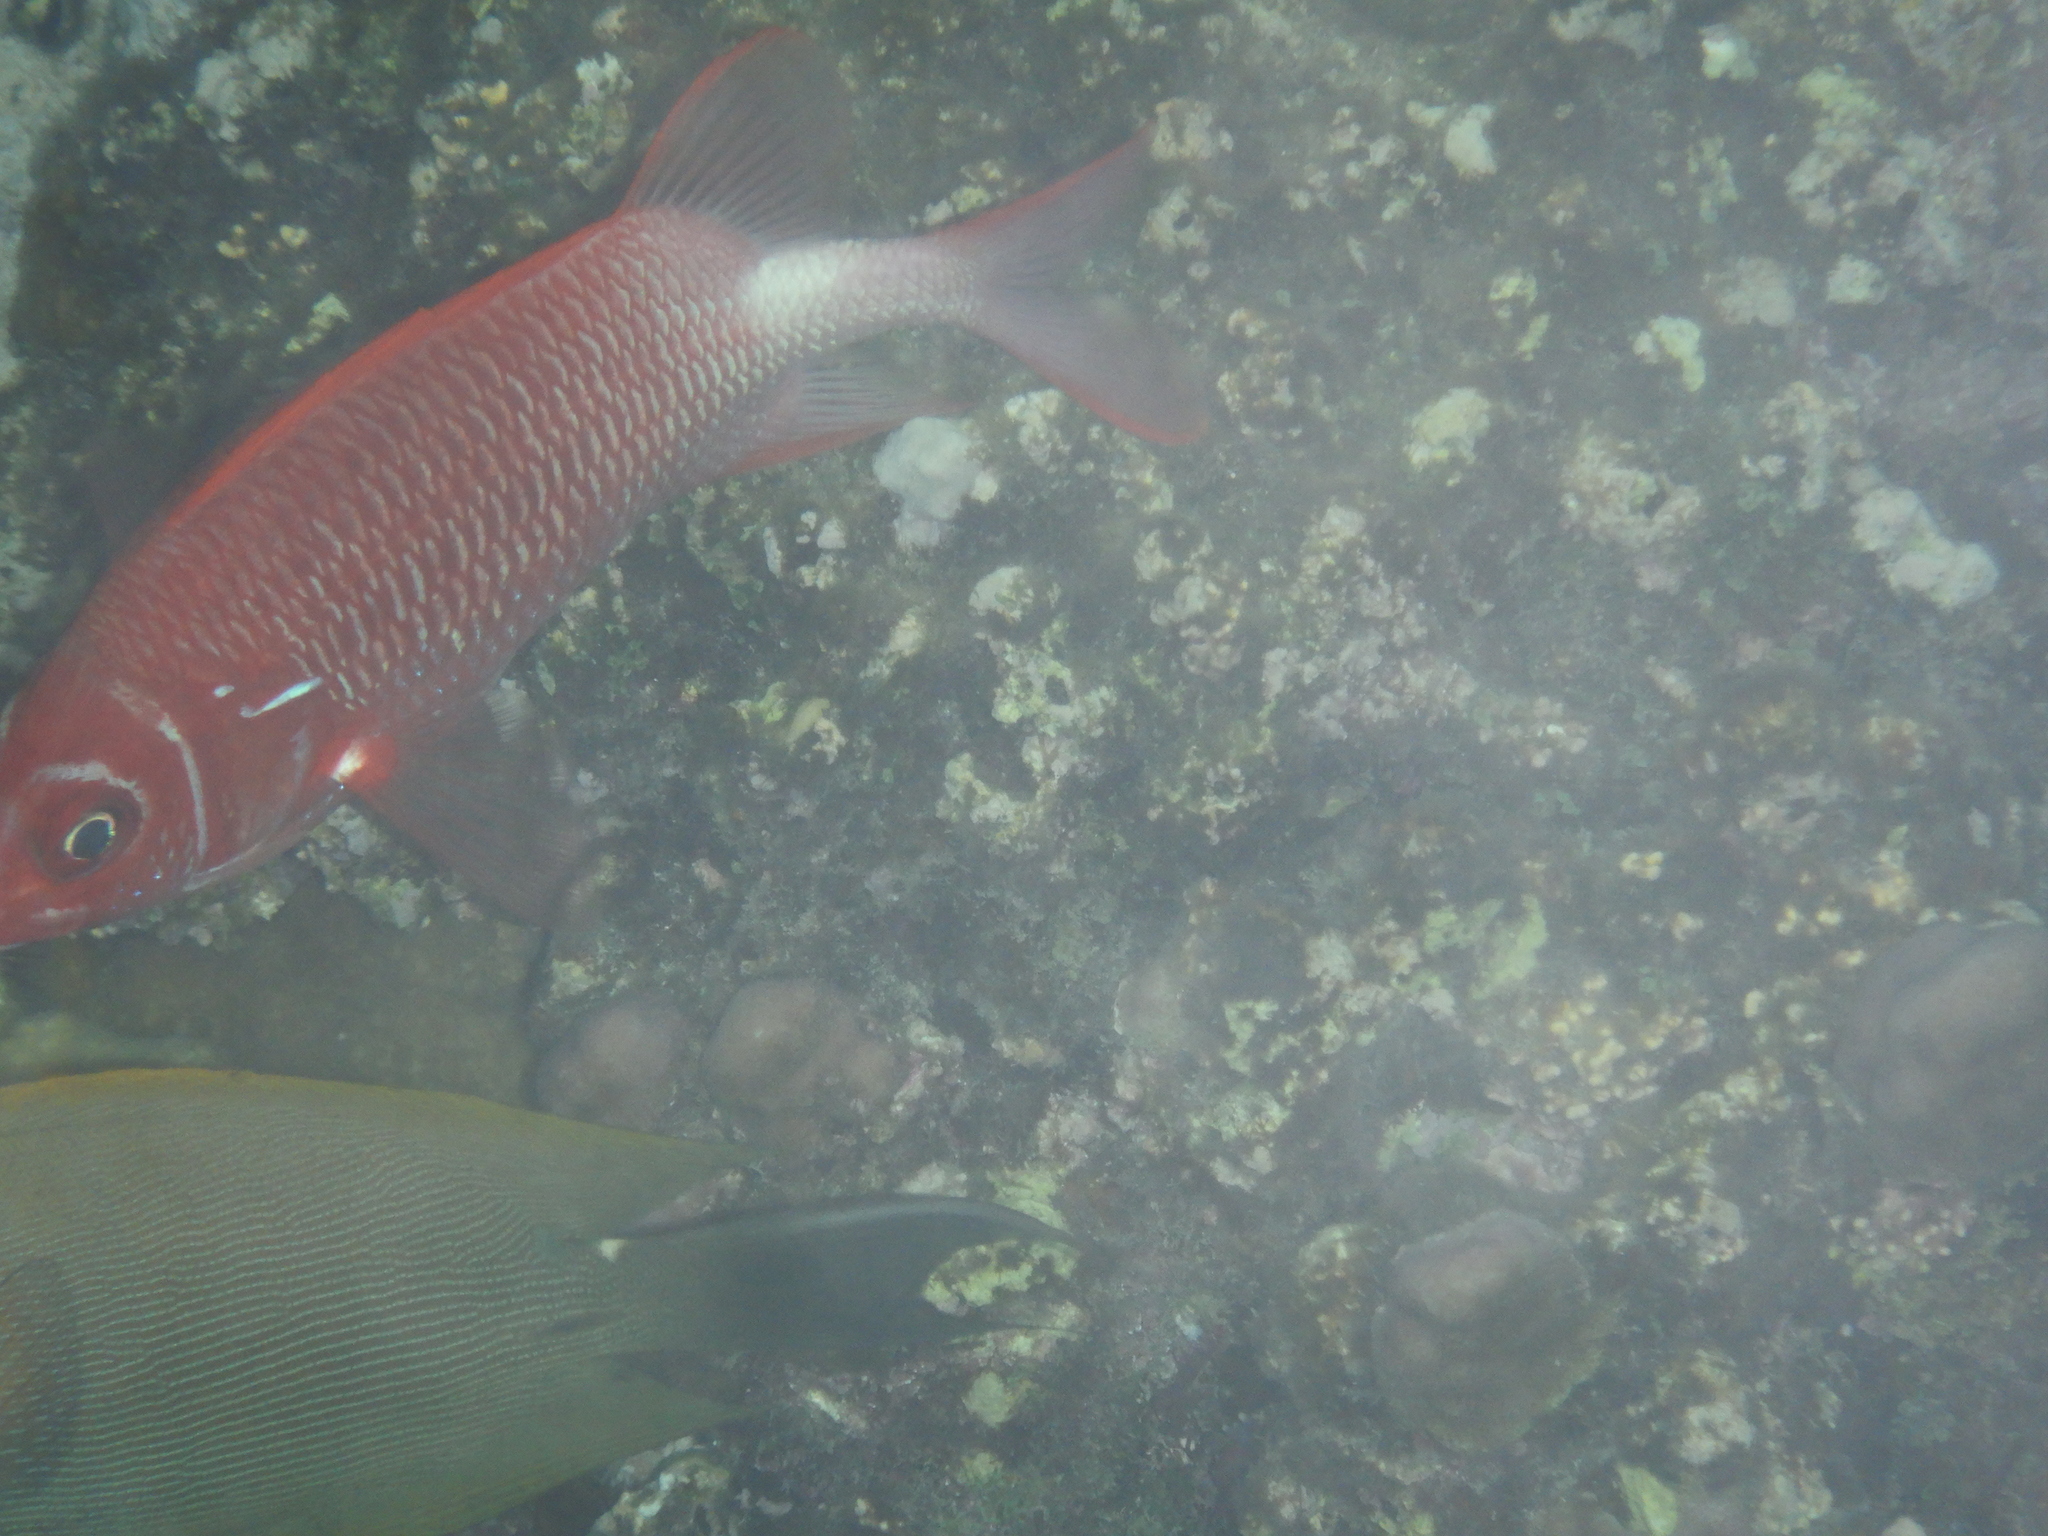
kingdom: Animalia
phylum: Chordata
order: Beryciformes
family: Holocentridae
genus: Sargocentron
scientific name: Sargocentron caudimaculatum
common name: Fanfin soldier
